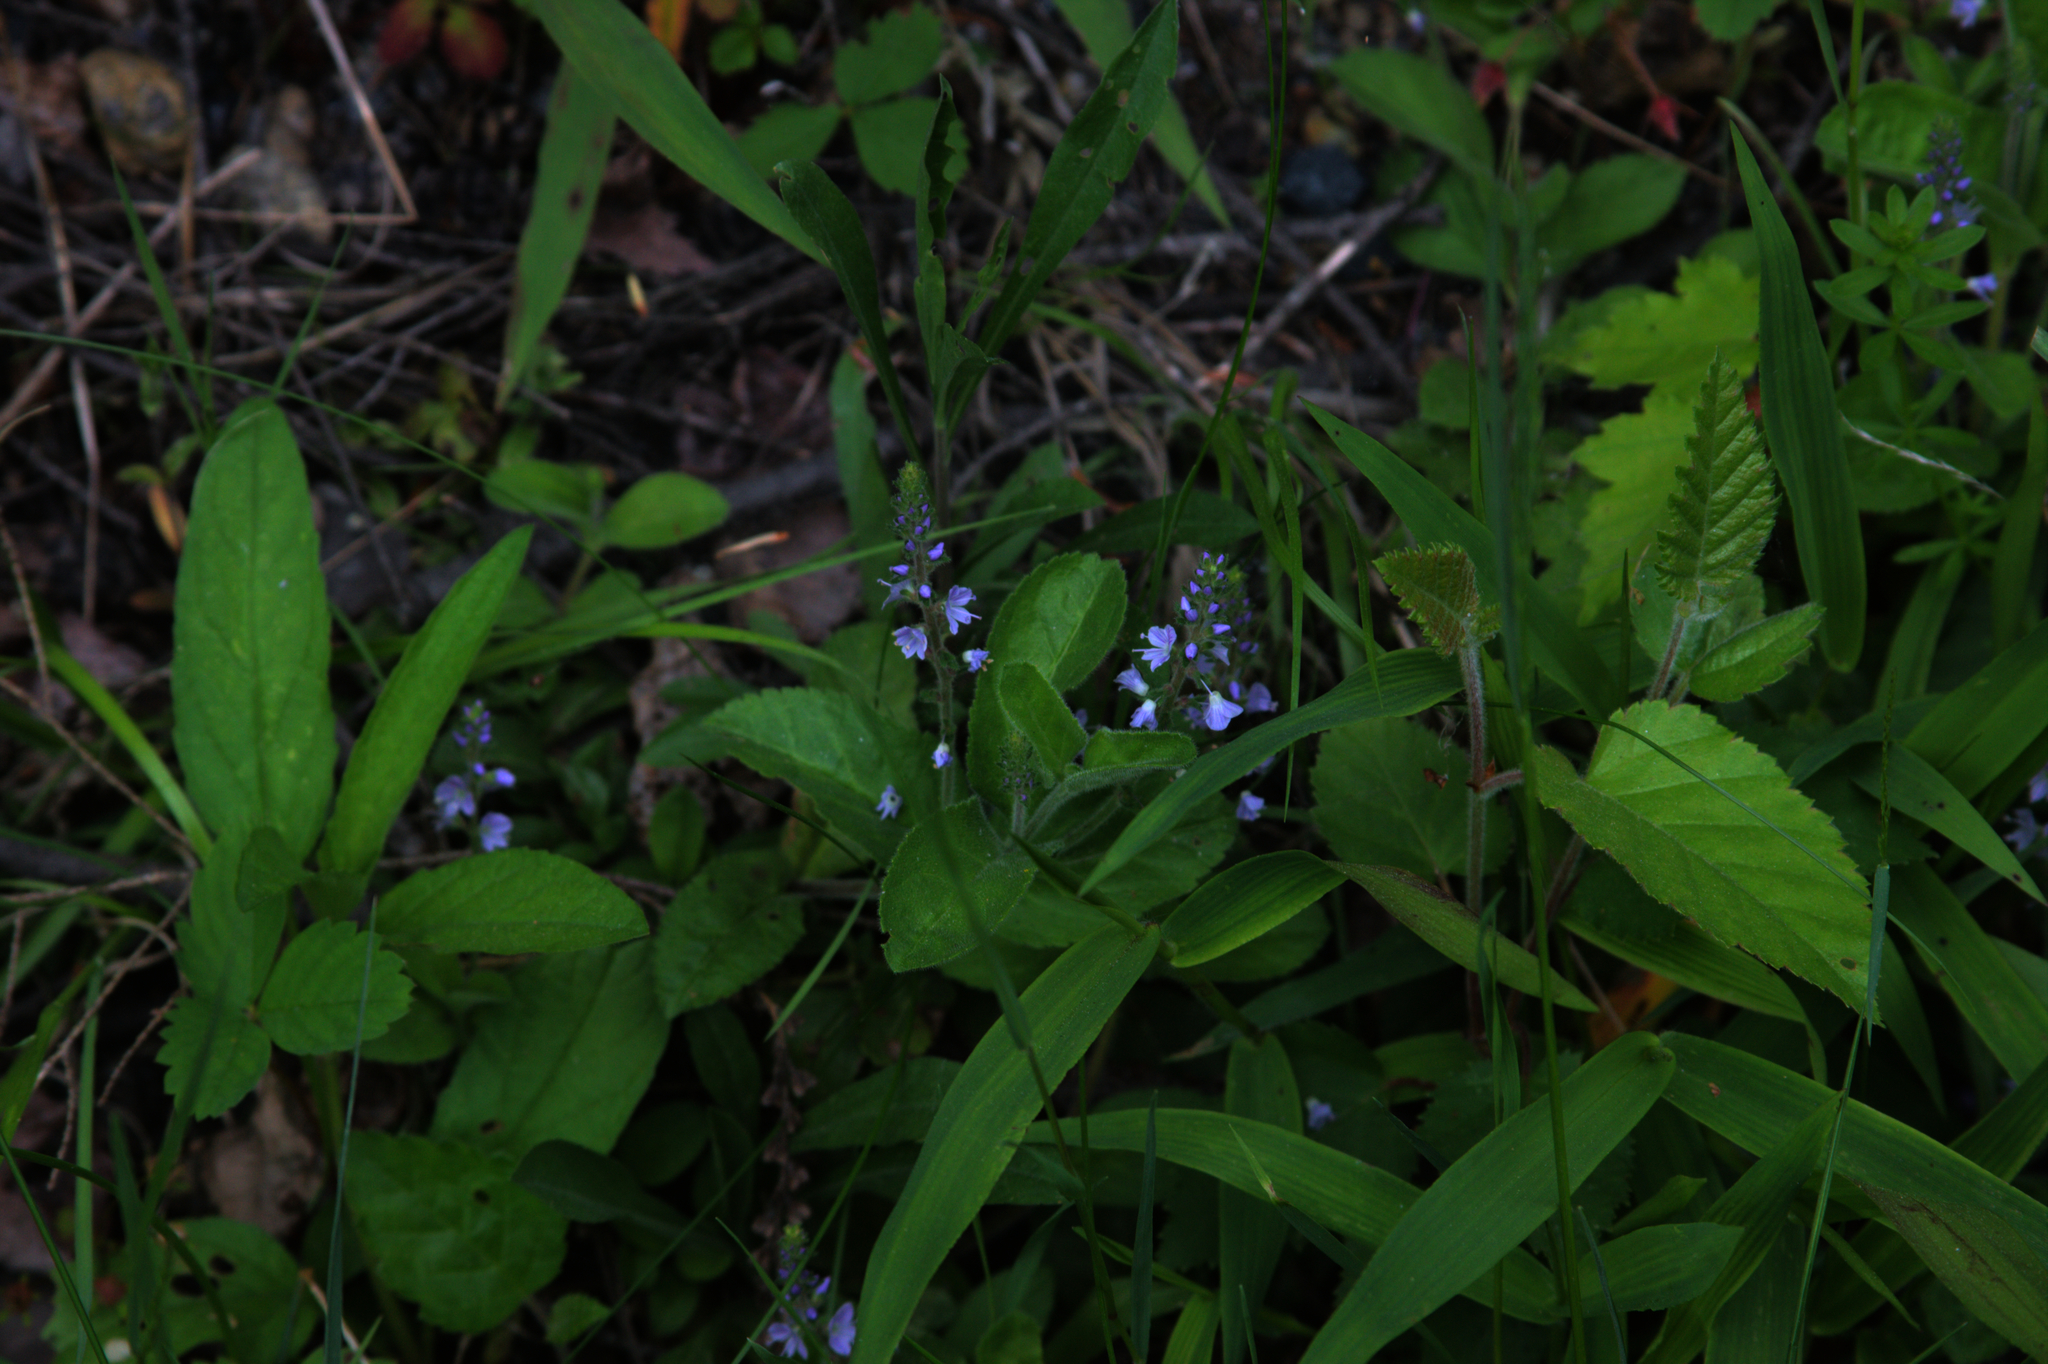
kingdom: Plantae
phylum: Tracheophyta
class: Magnoliopsida
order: Lamiales
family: Plantaginaceae
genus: Veronica
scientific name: Veronica officinalis
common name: Common speedwell
